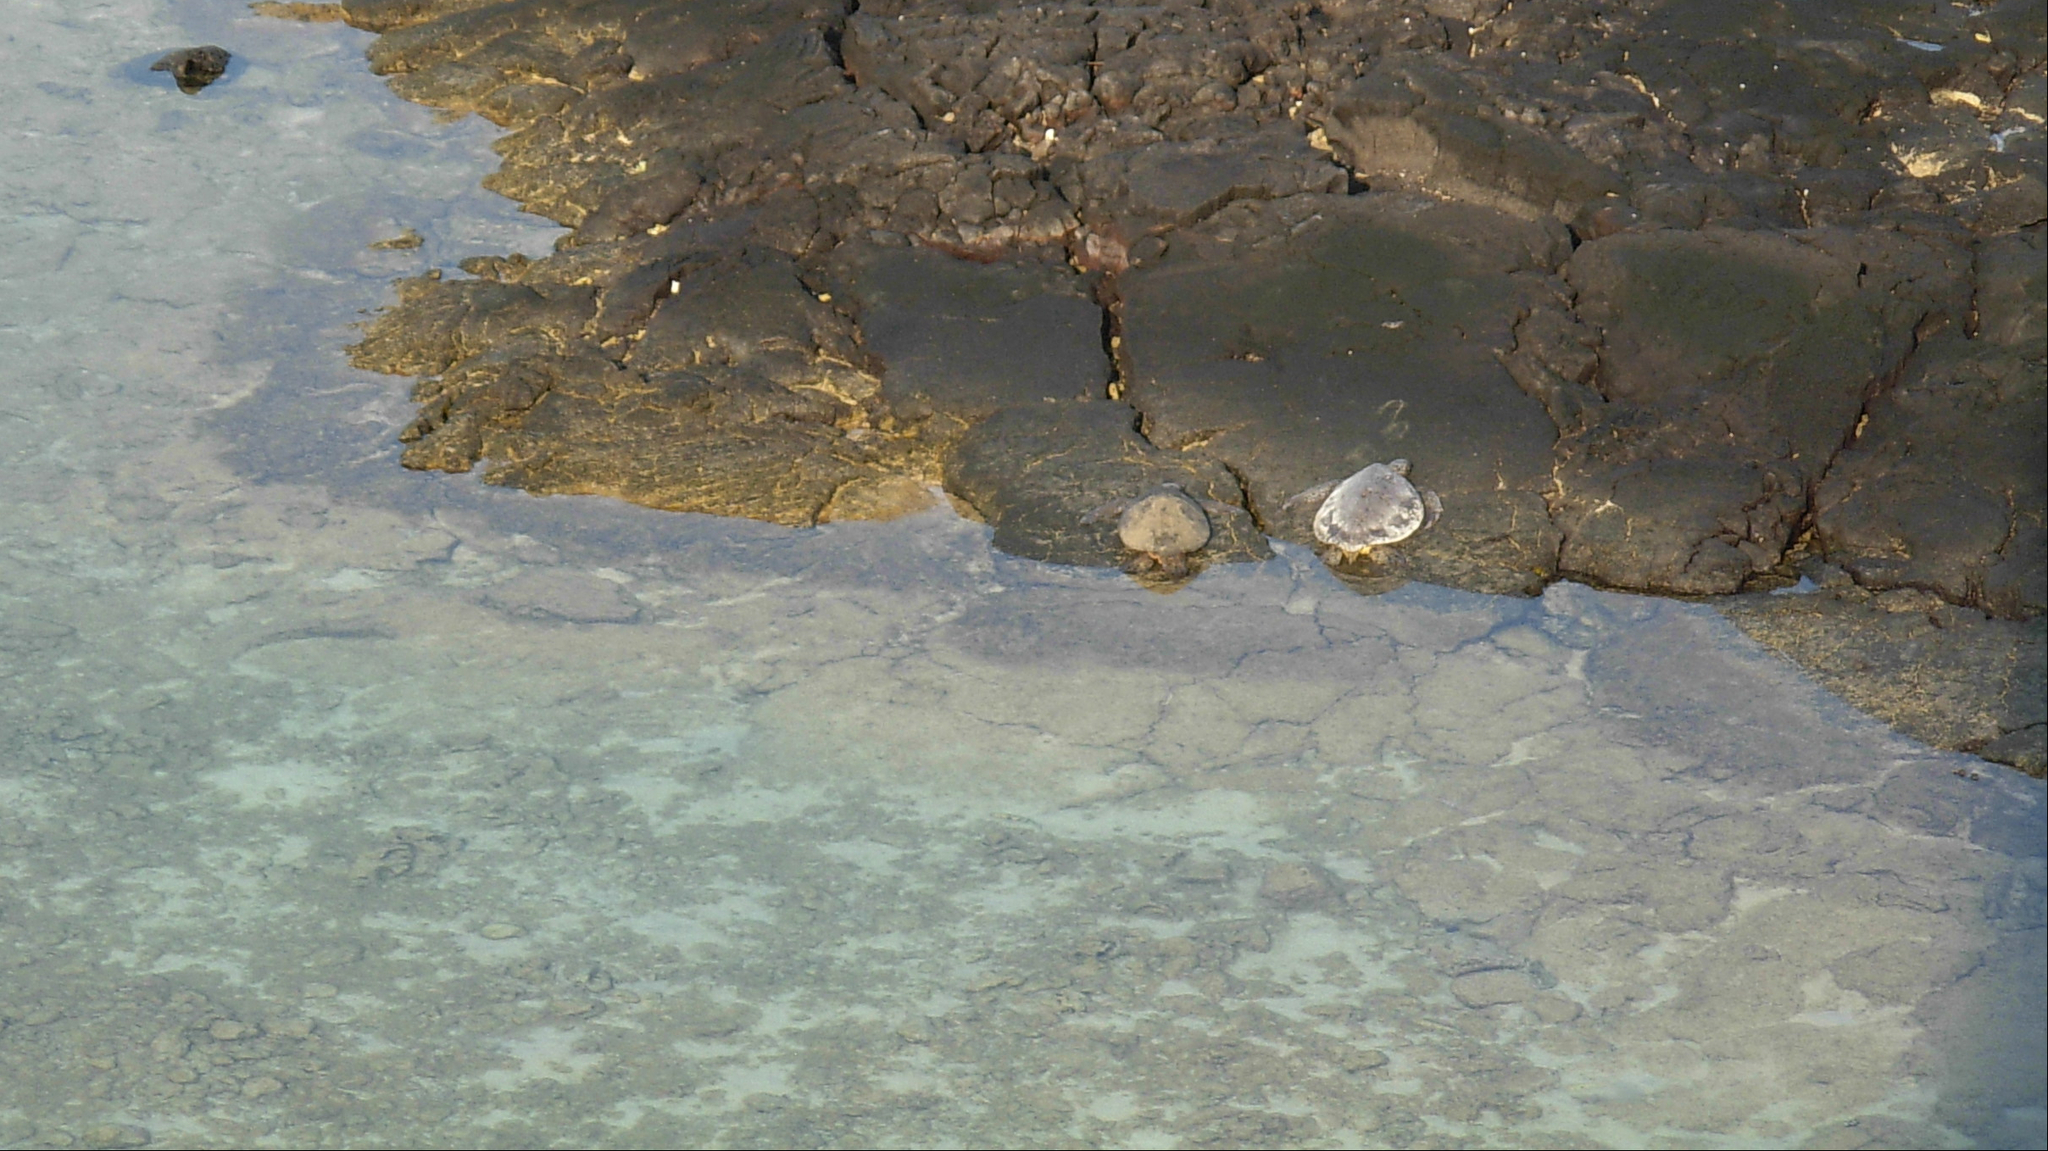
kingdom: Animalia
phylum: Chordata
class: Testudines
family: Cheloniidae
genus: Chelonia
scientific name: Chelonia mydas
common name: Green turtle
